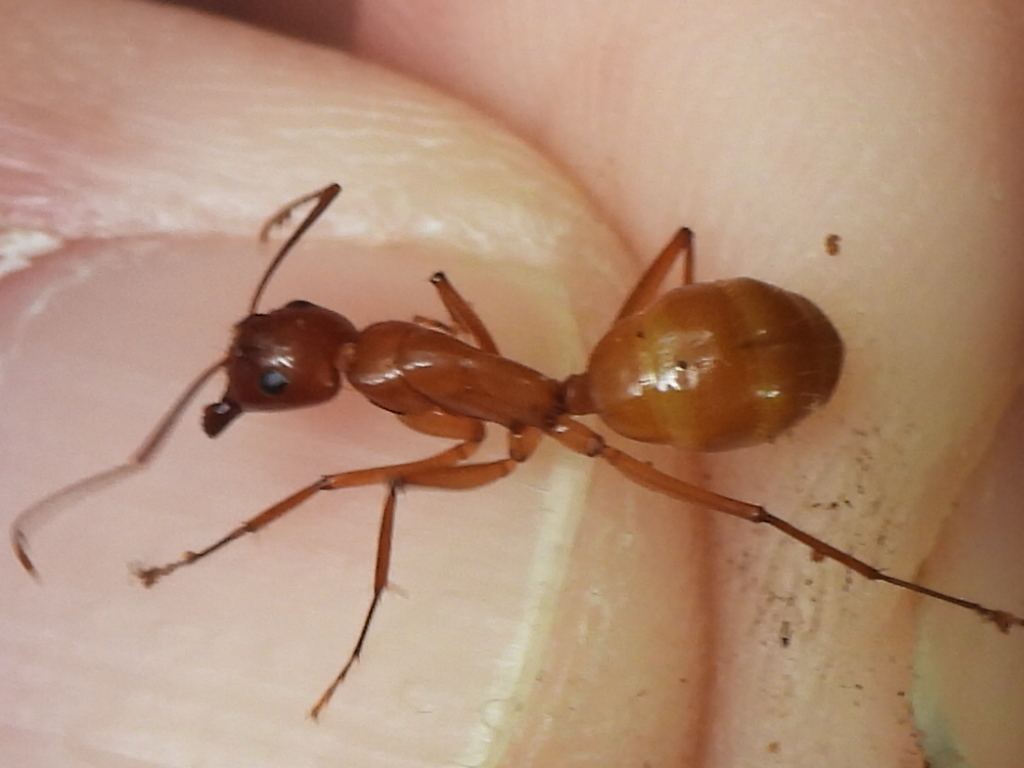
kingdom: Animalia
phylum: Arthropoda
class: Insecta
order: Hymenoptera
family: Formicidae
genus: Camponotus
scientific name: Camponotus castaneus
